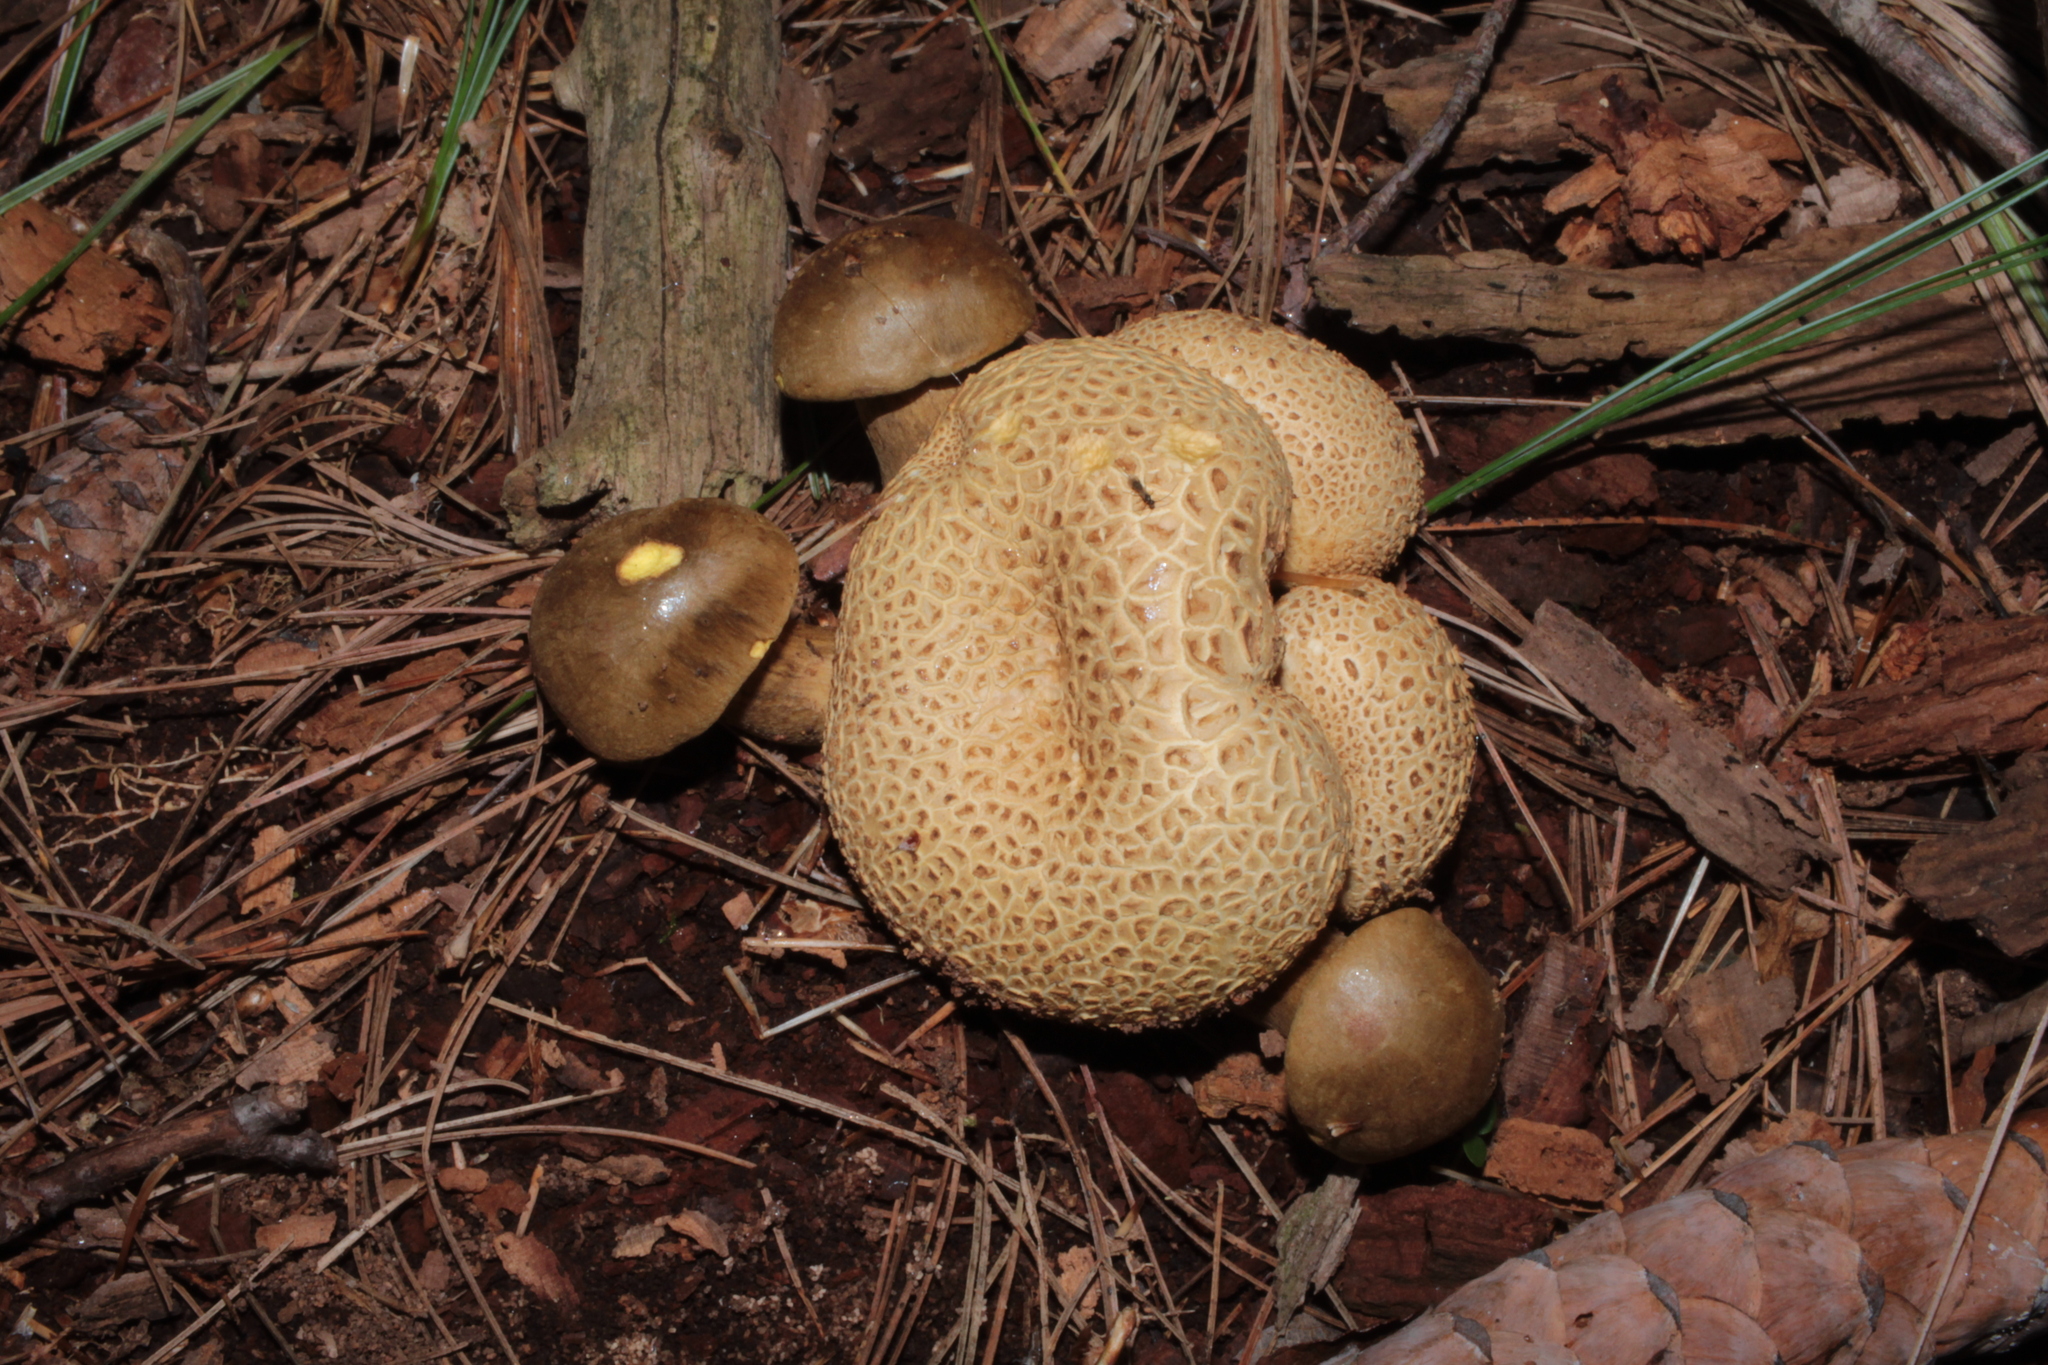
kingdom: Fungi
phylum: Basidiomycota
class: Agaricomycetes
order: Boletales
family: Boletaceae
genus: Pseudoboletus
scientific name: Pseudoboletus parasiticus
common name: Parasitic bolete
